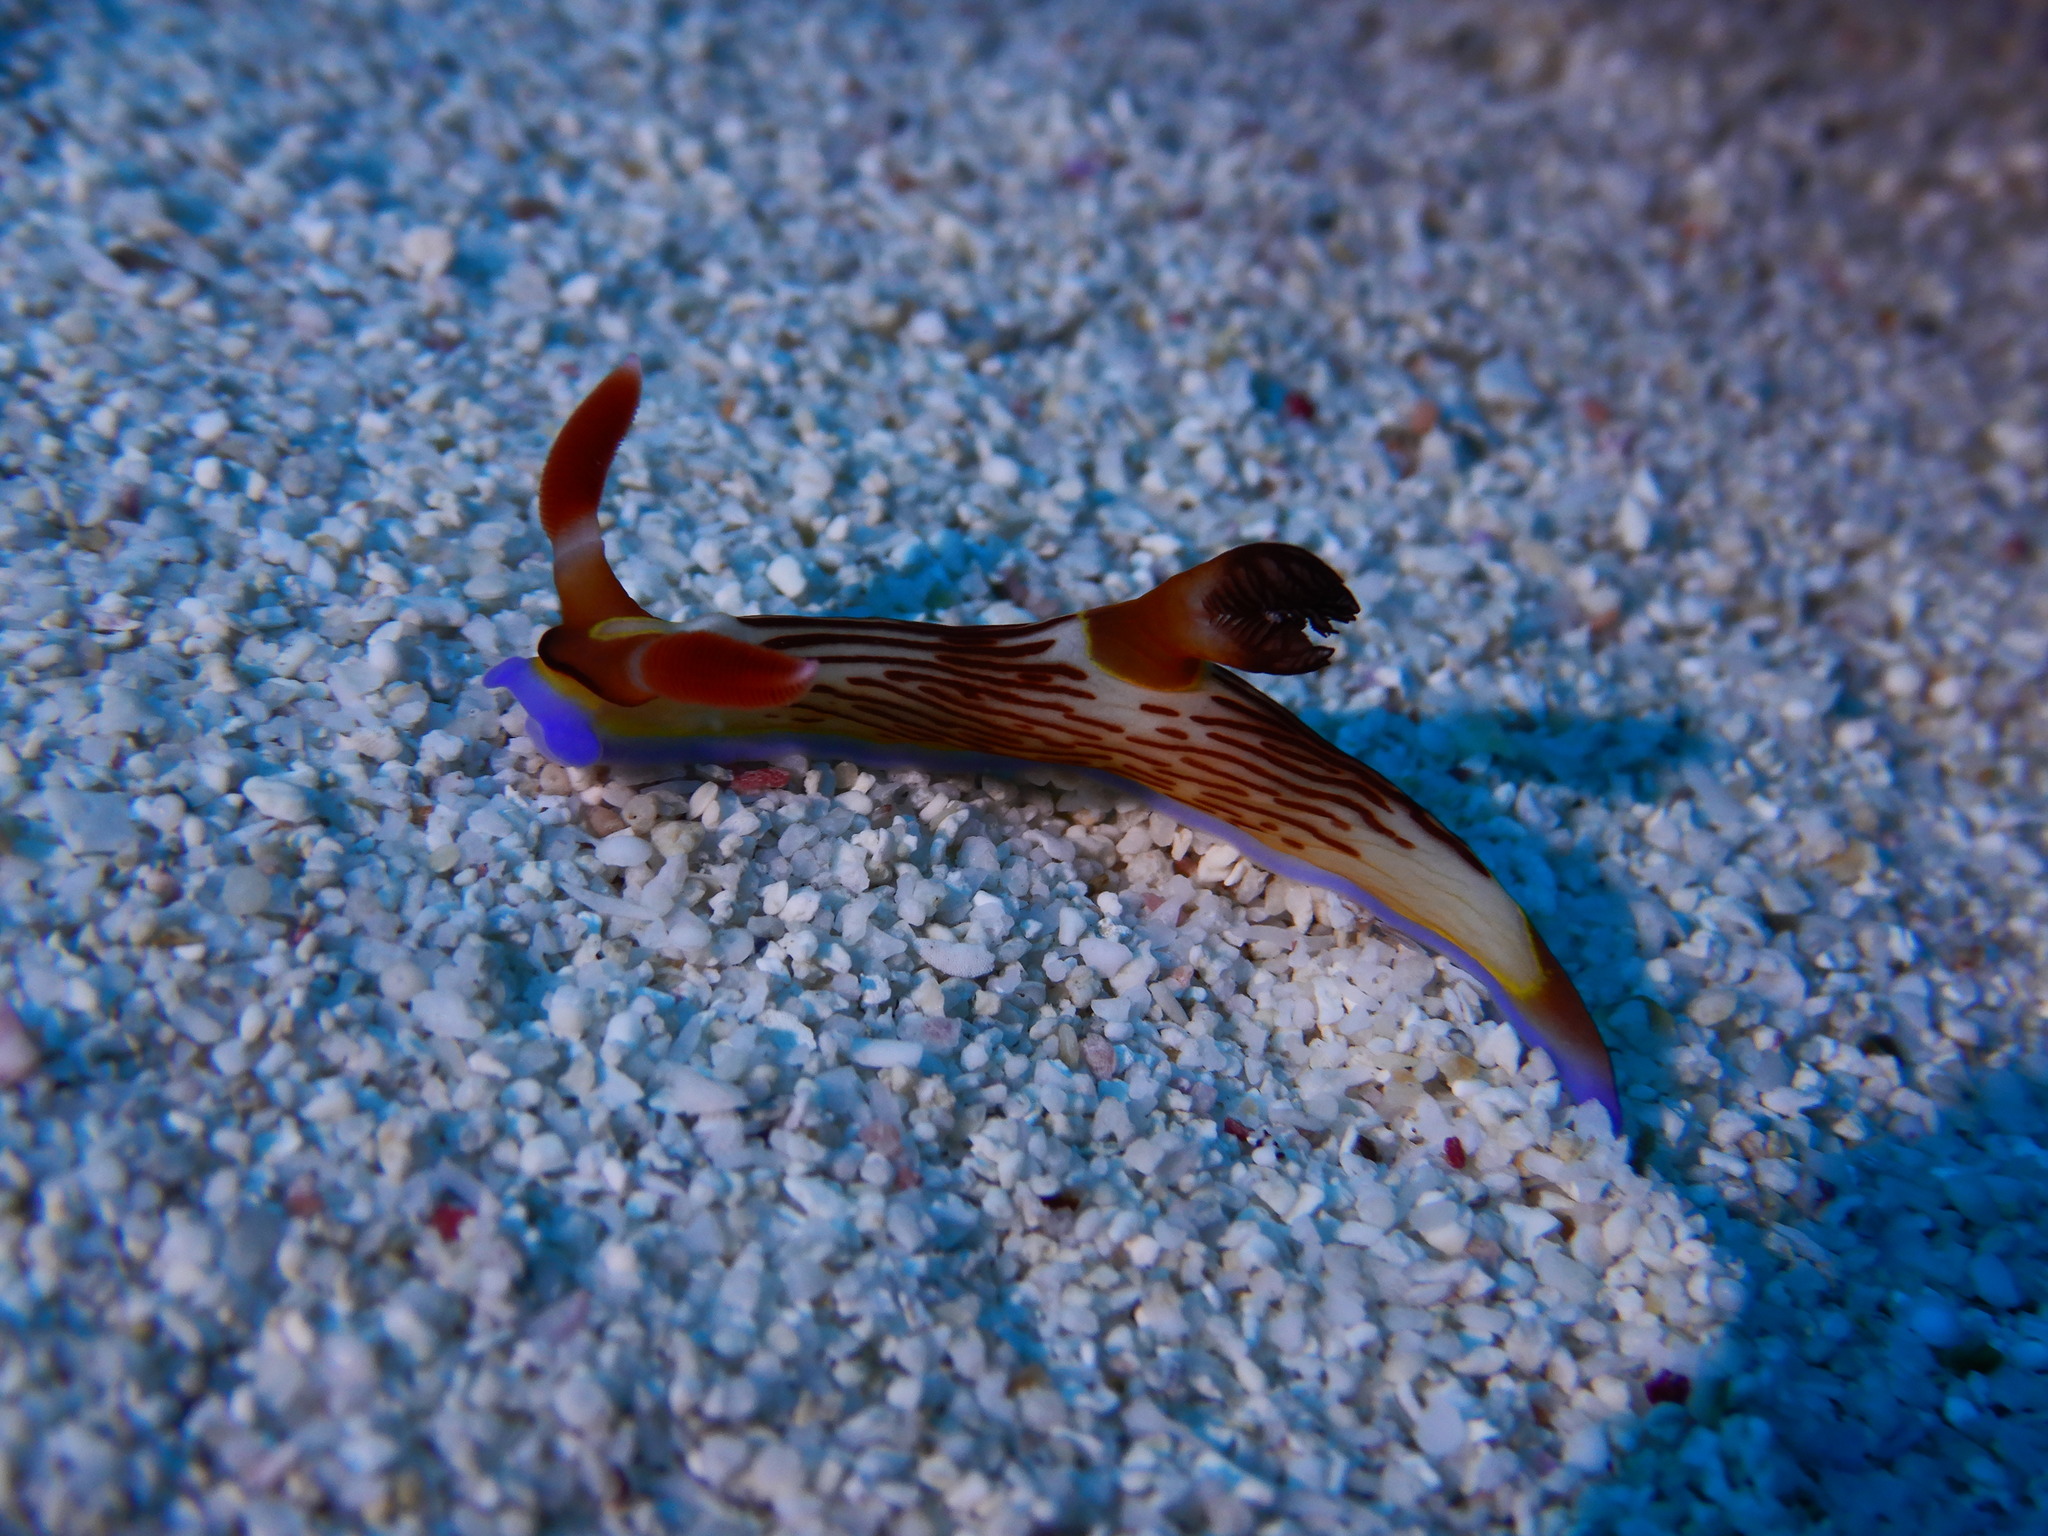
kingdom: Animalia
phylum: Mollusca
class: Gastropoda
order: Nudibranchia
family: Polyceridae
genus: Nembrotha
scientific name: Nembrotha lineolata
